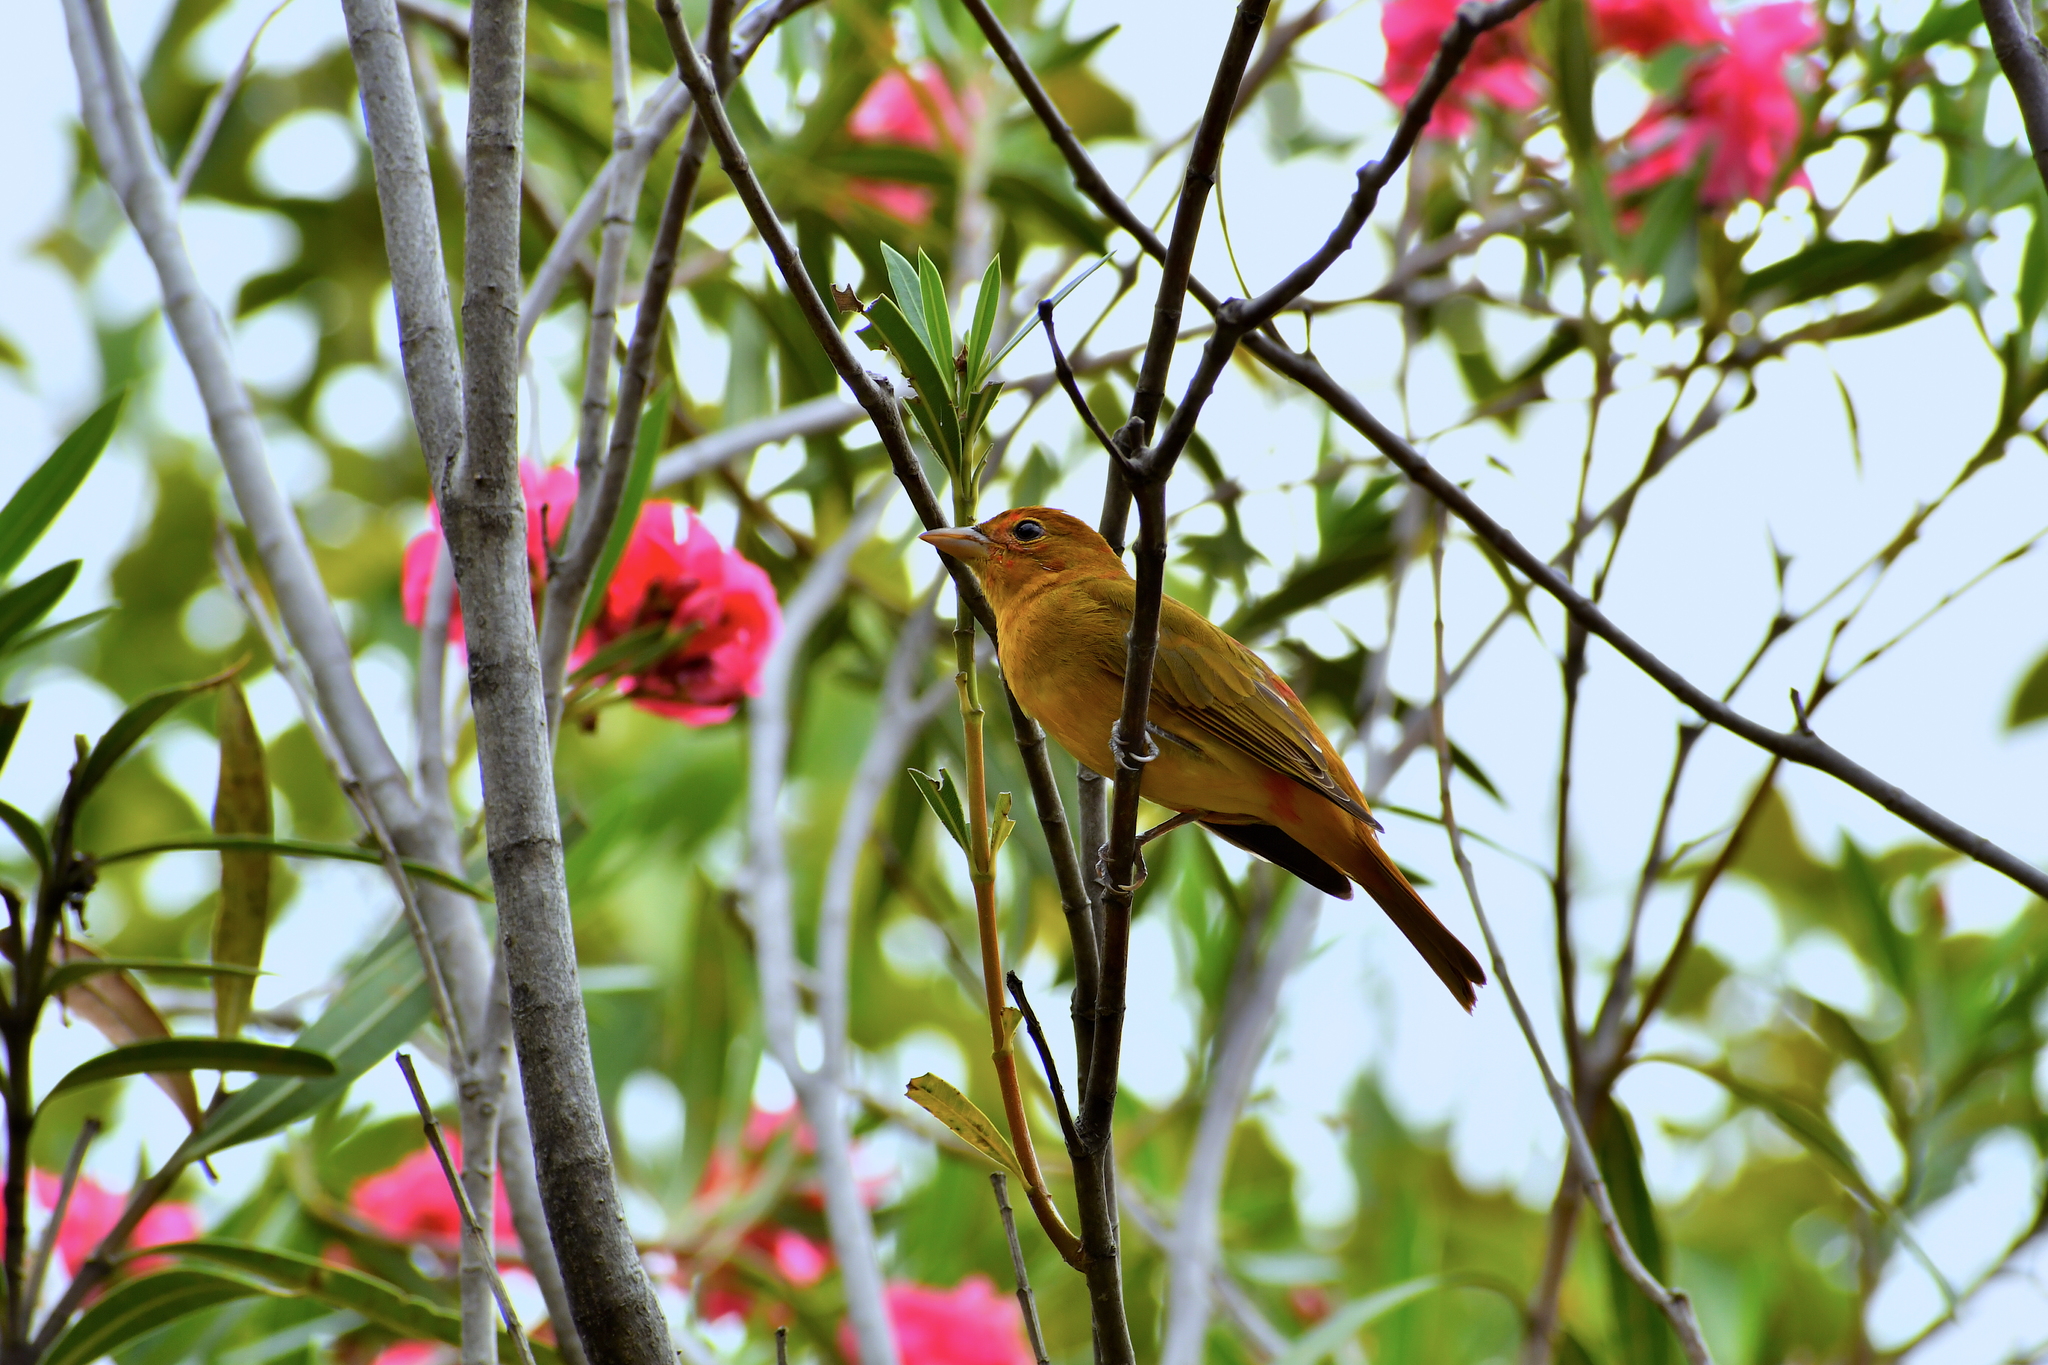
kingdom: Animalia
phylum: Chordata
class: Aves
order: Passeriformes
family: Cardinalidae
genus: Piranga
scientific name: Piranga rubra
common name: Summer tanager
